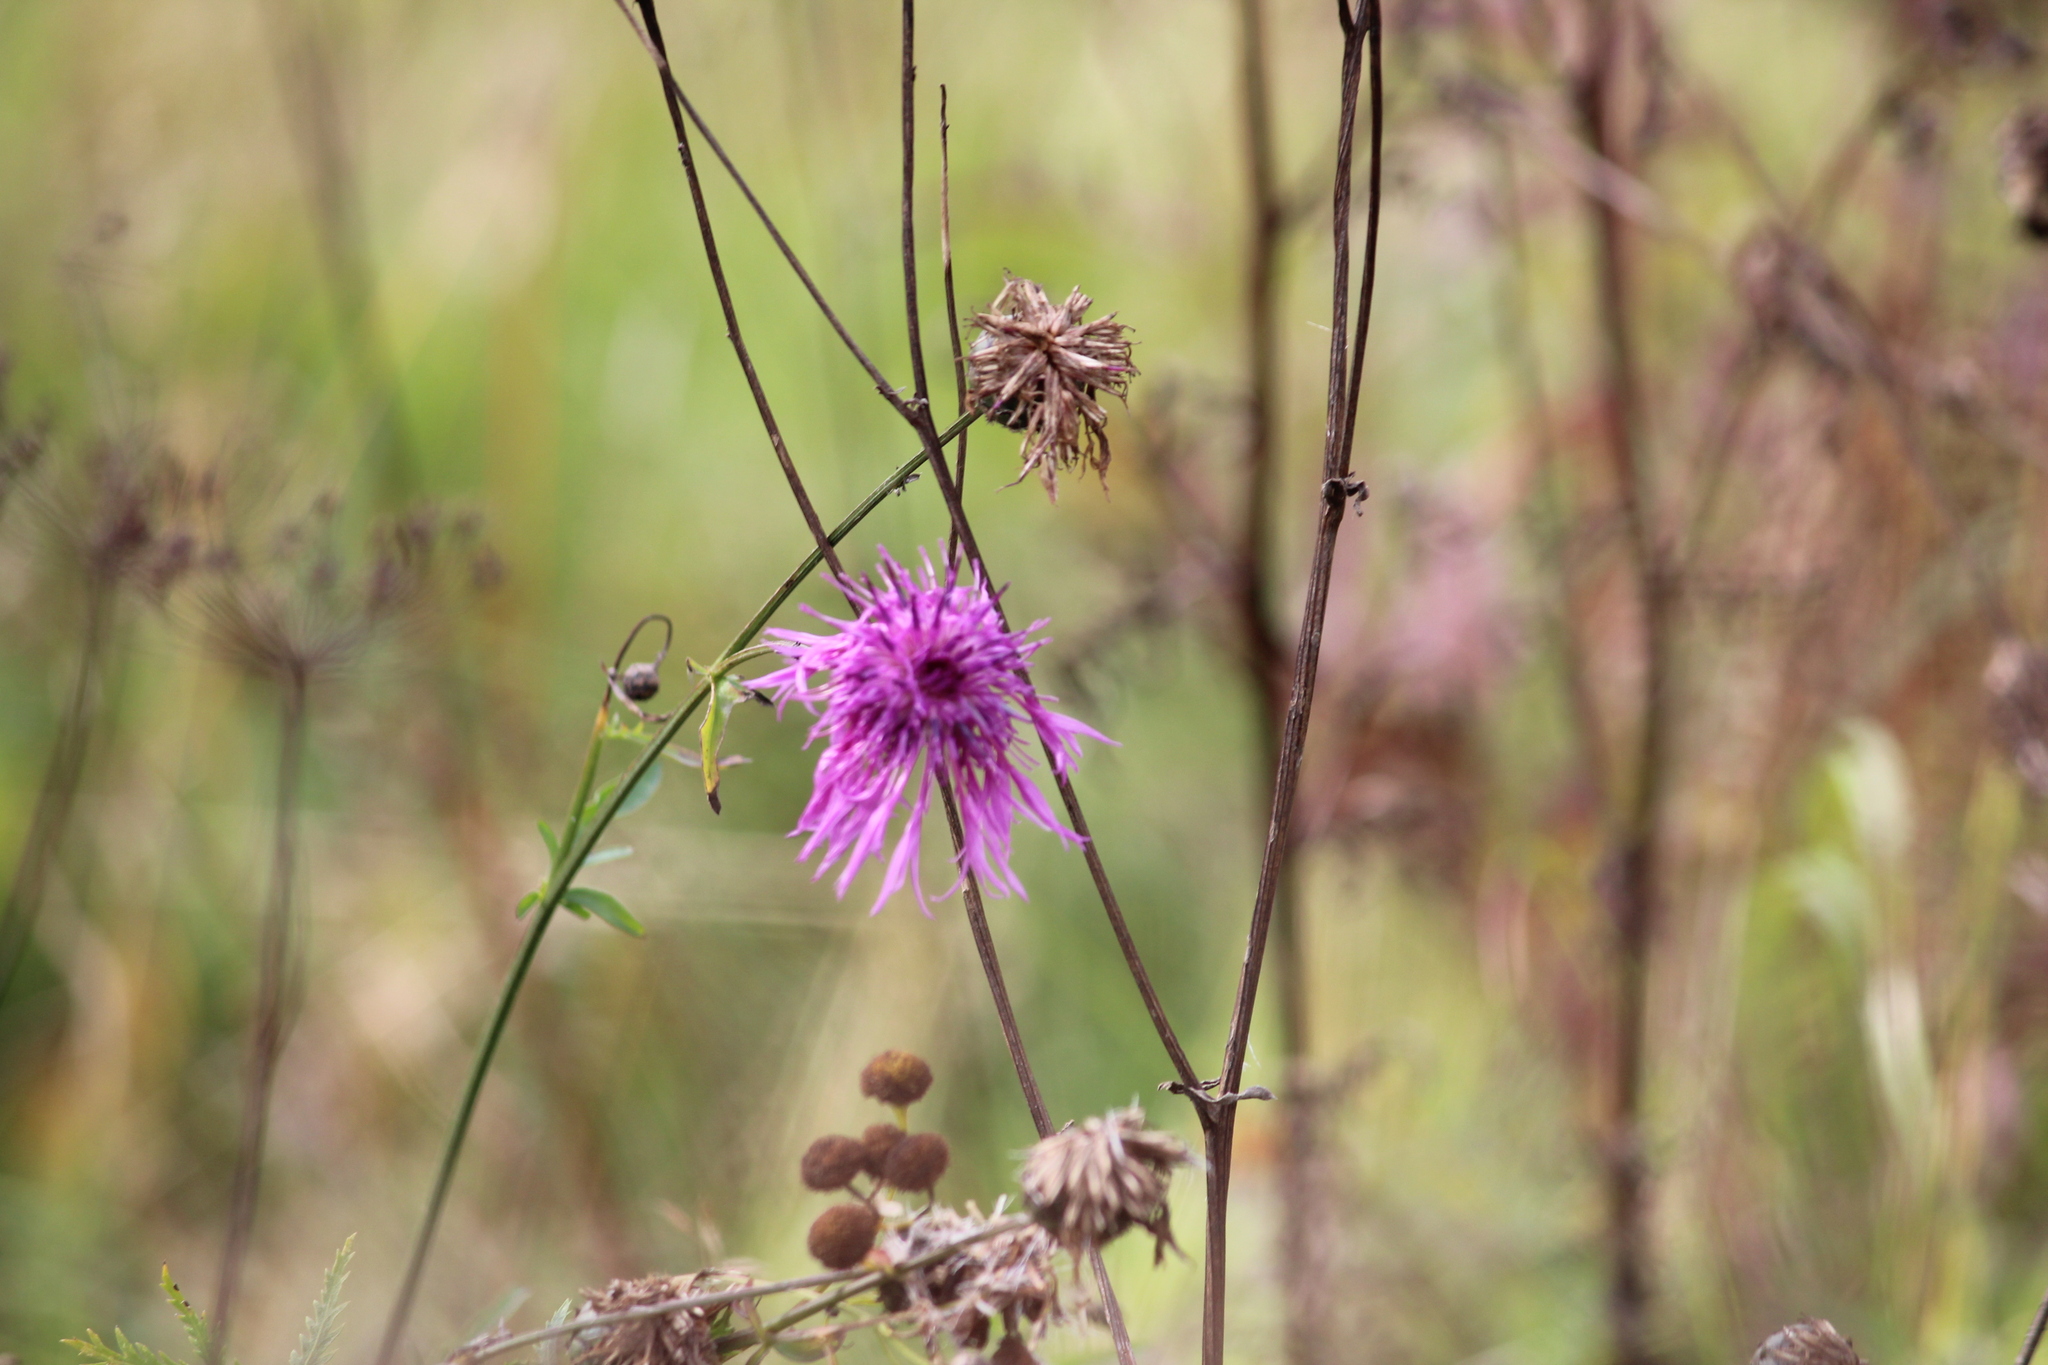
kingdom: Plantae
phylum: Tracheophyta
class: Magnoliopsida
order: Asterales
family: Asteraceae
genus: Centaurea
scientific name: Centaurea scabiosa
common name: Greater knapweed
